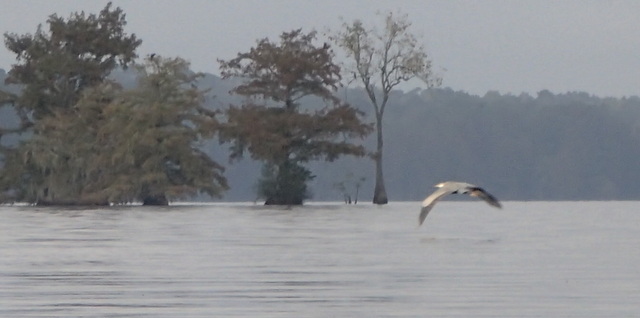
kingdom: Animalia
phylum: Chordata
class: Aves
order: Pelecaniformes
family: Ardeidae
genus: Ardea
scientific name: Ardea herodias
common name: Great blue heron
